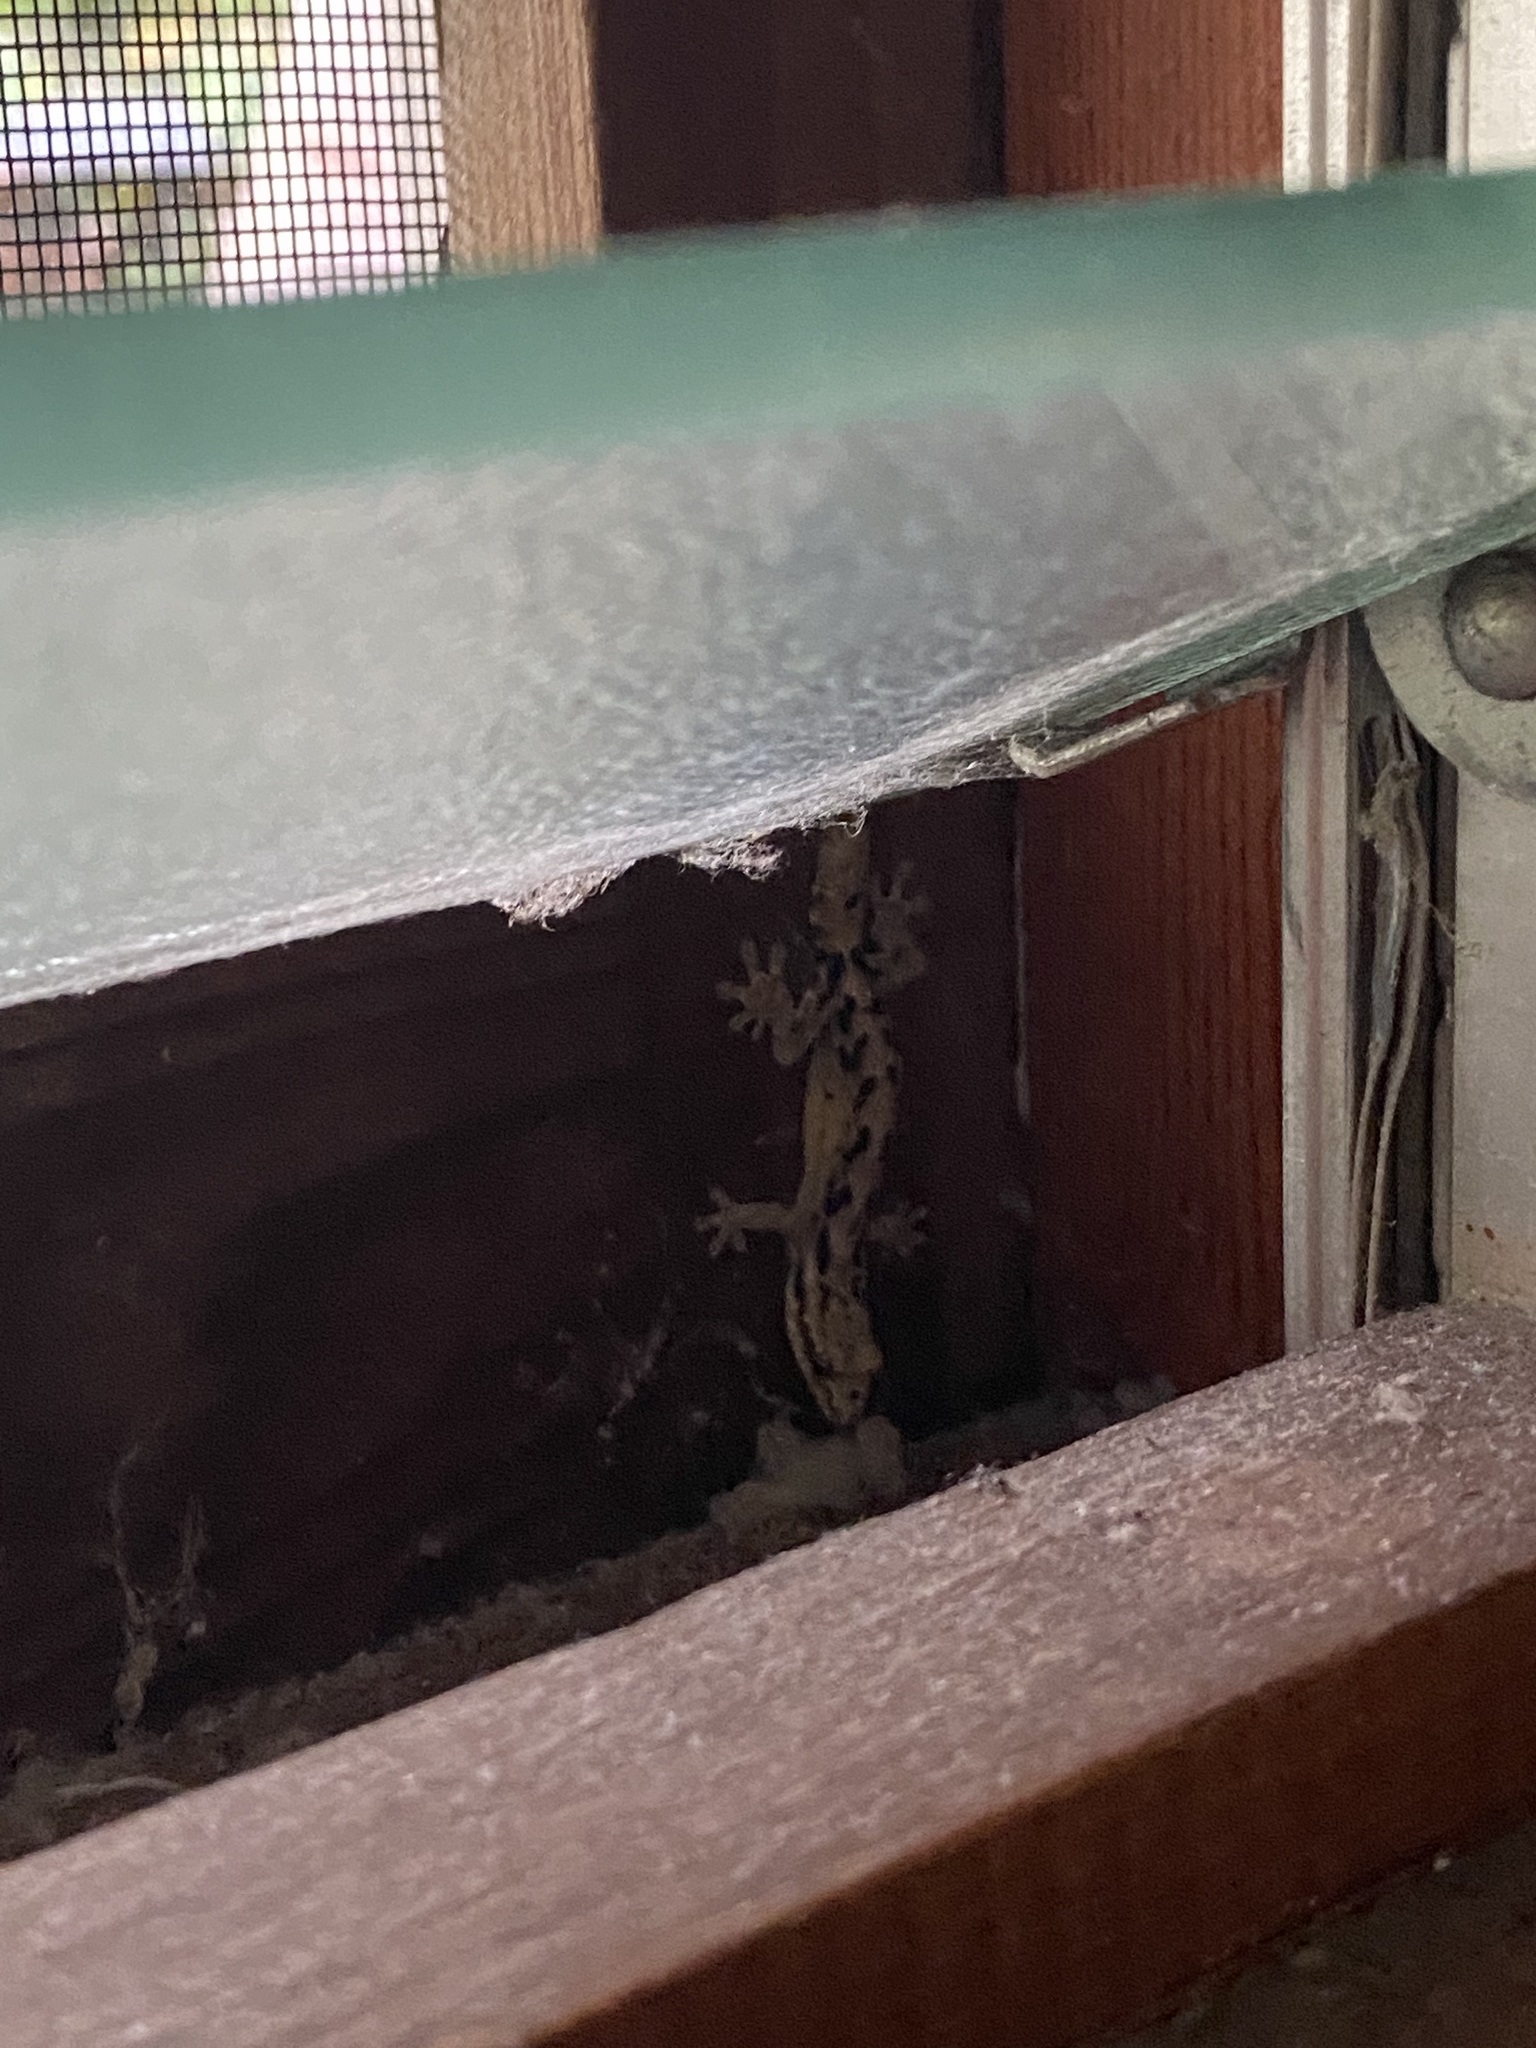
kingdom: Animalia
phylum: Chordata
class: Squamata
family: Gekkonidae
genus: Lepidodactylus
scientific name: Lepidodactylus lugubris
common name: Mourning gecko
